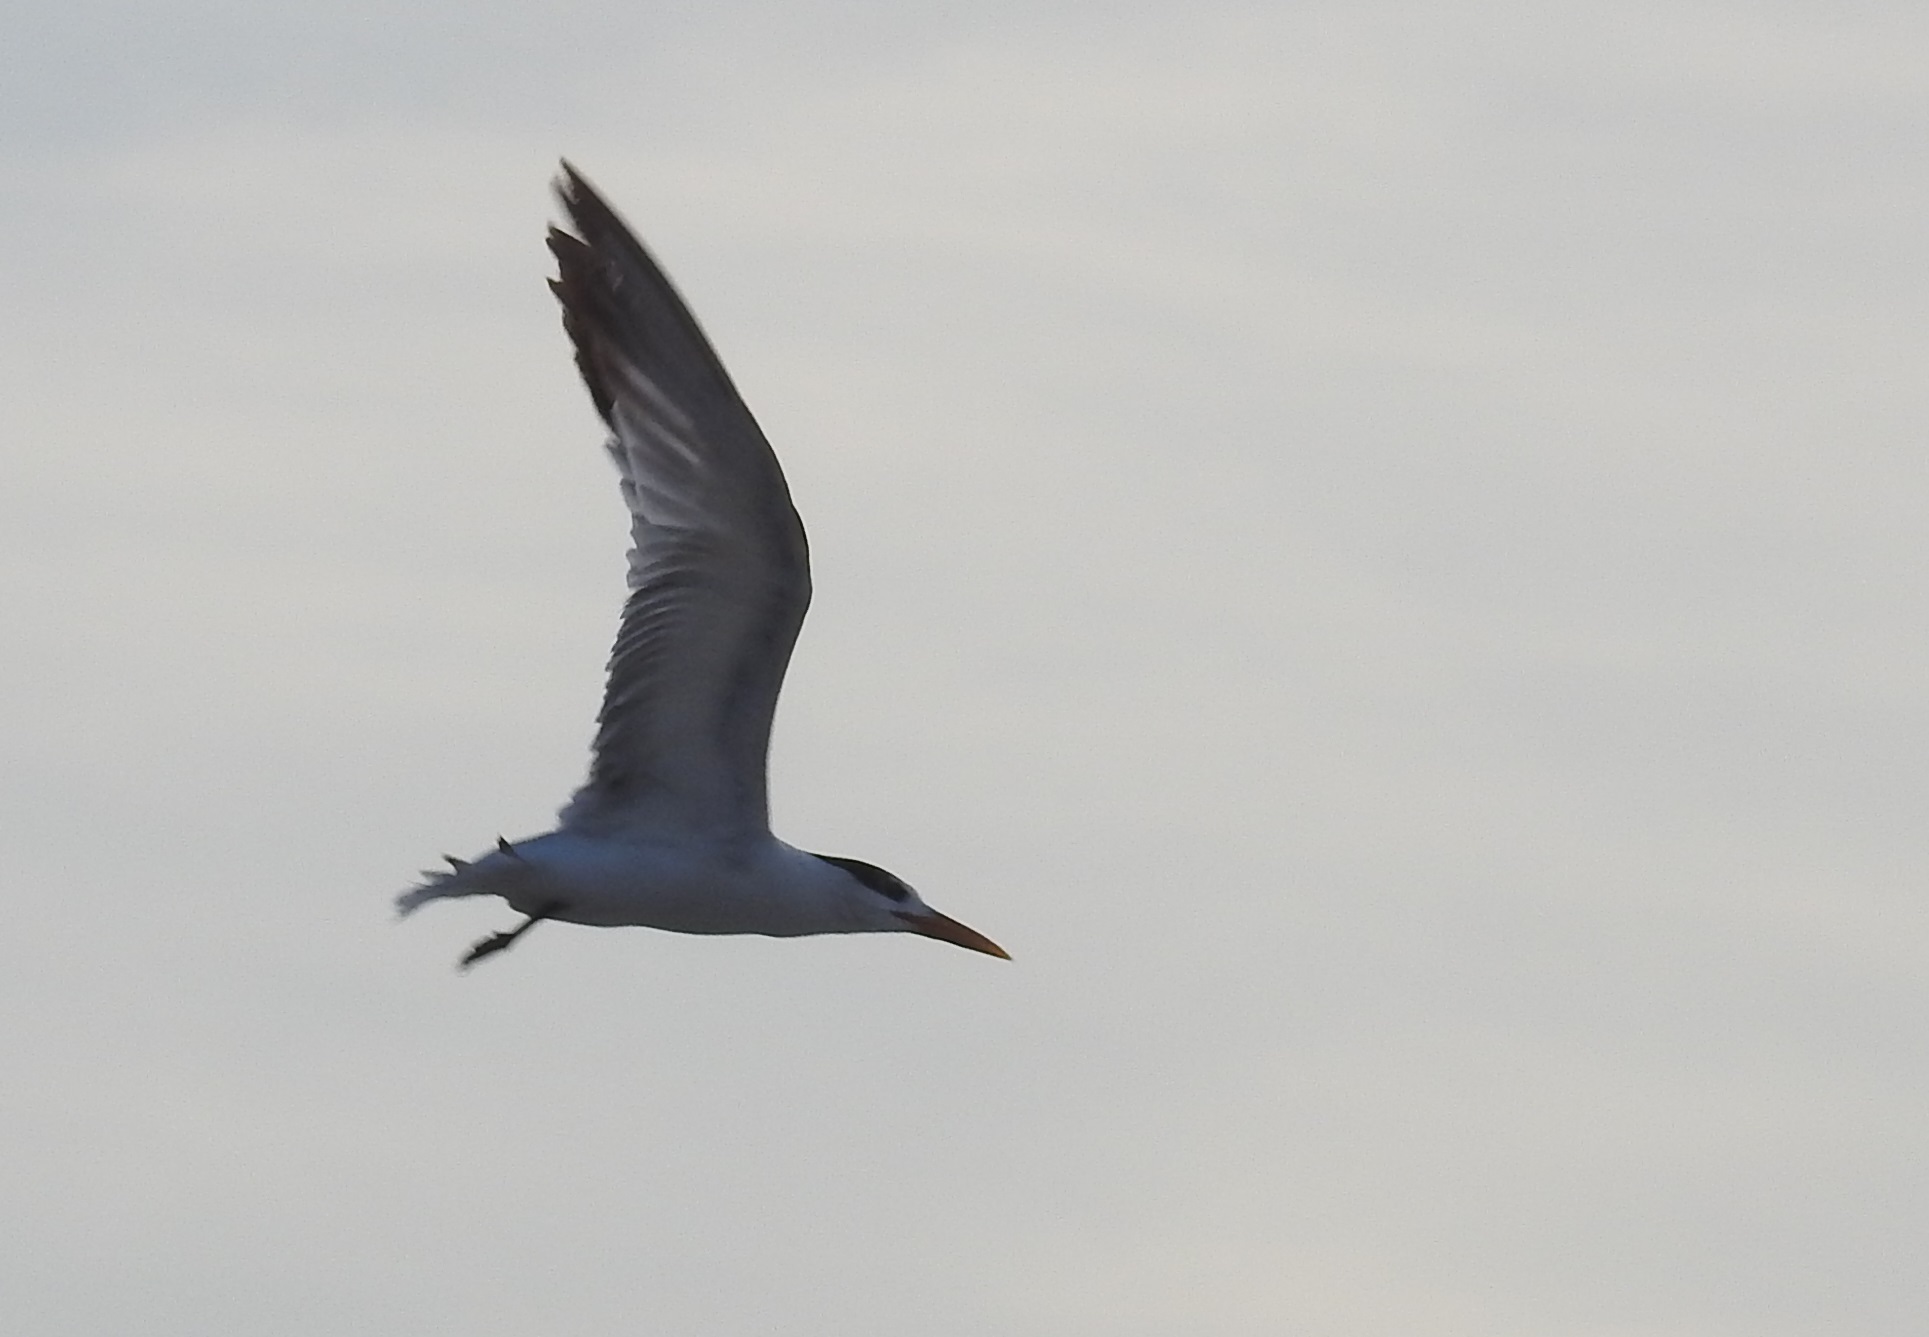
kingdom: Animalia
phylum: Chordata
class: Aves
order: Charadriiformes
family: Laridae
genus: Thalasseus
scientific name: Thalasseus albididorsalis
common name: West african crested tern
